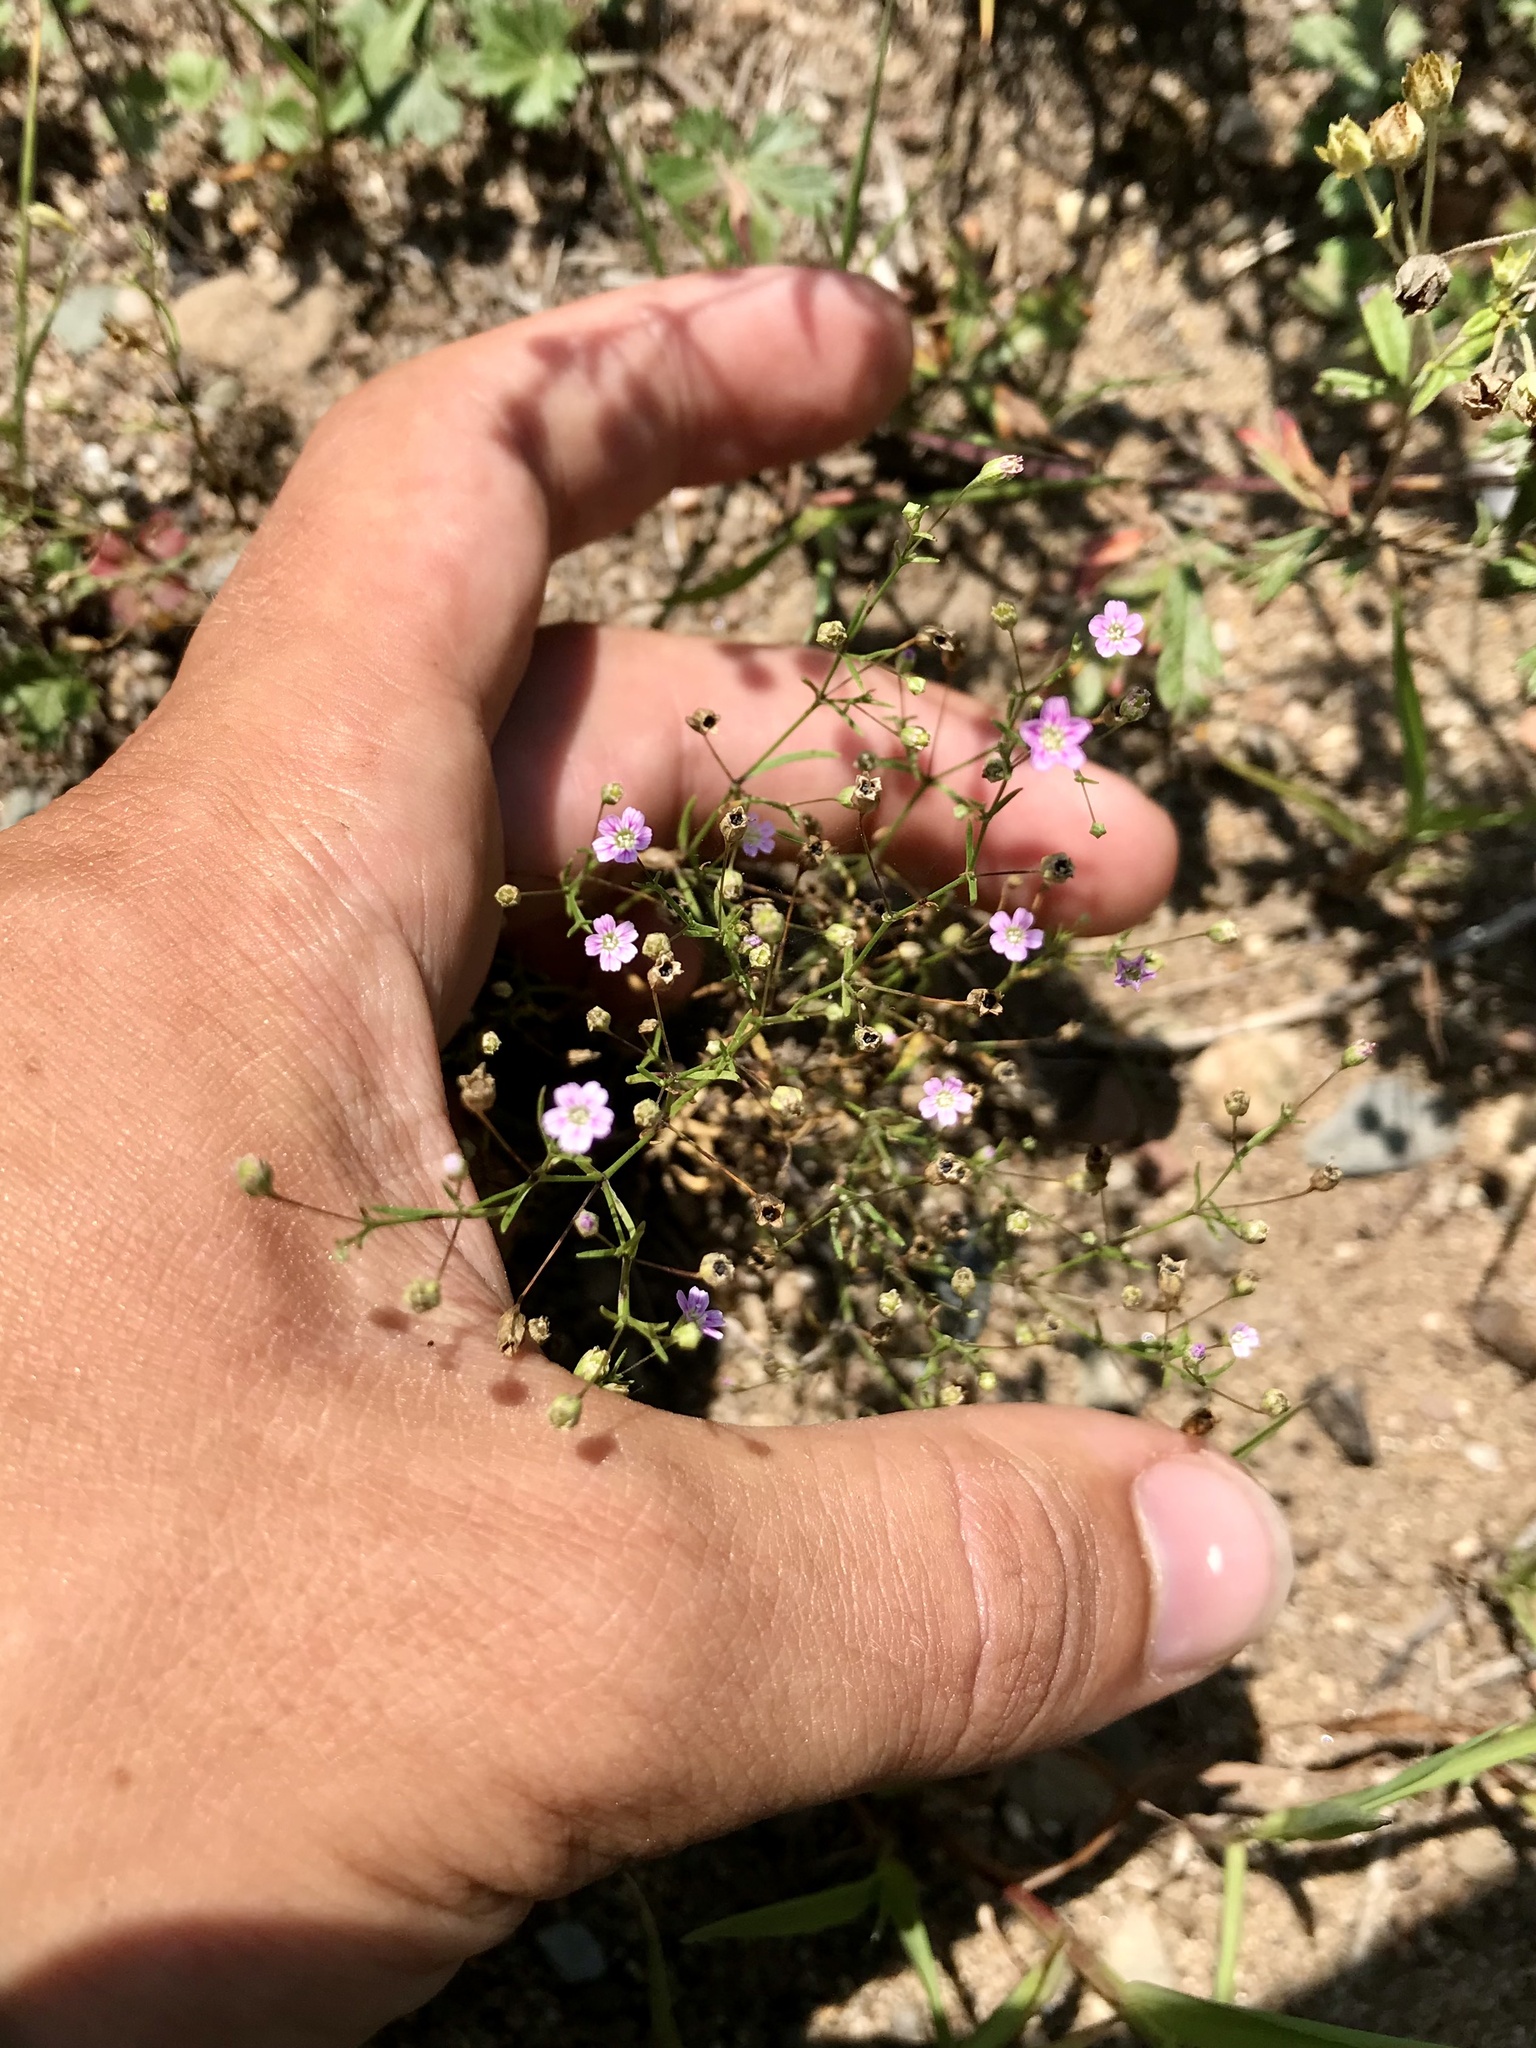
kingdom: Plantae
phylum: Tracheophyta
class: Magnoliopsida
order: Caryophyllales
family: Caryophyllaceae
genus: Psammophiliella
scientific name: Psammophiliella muralis
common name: Cushion baby's-breath
